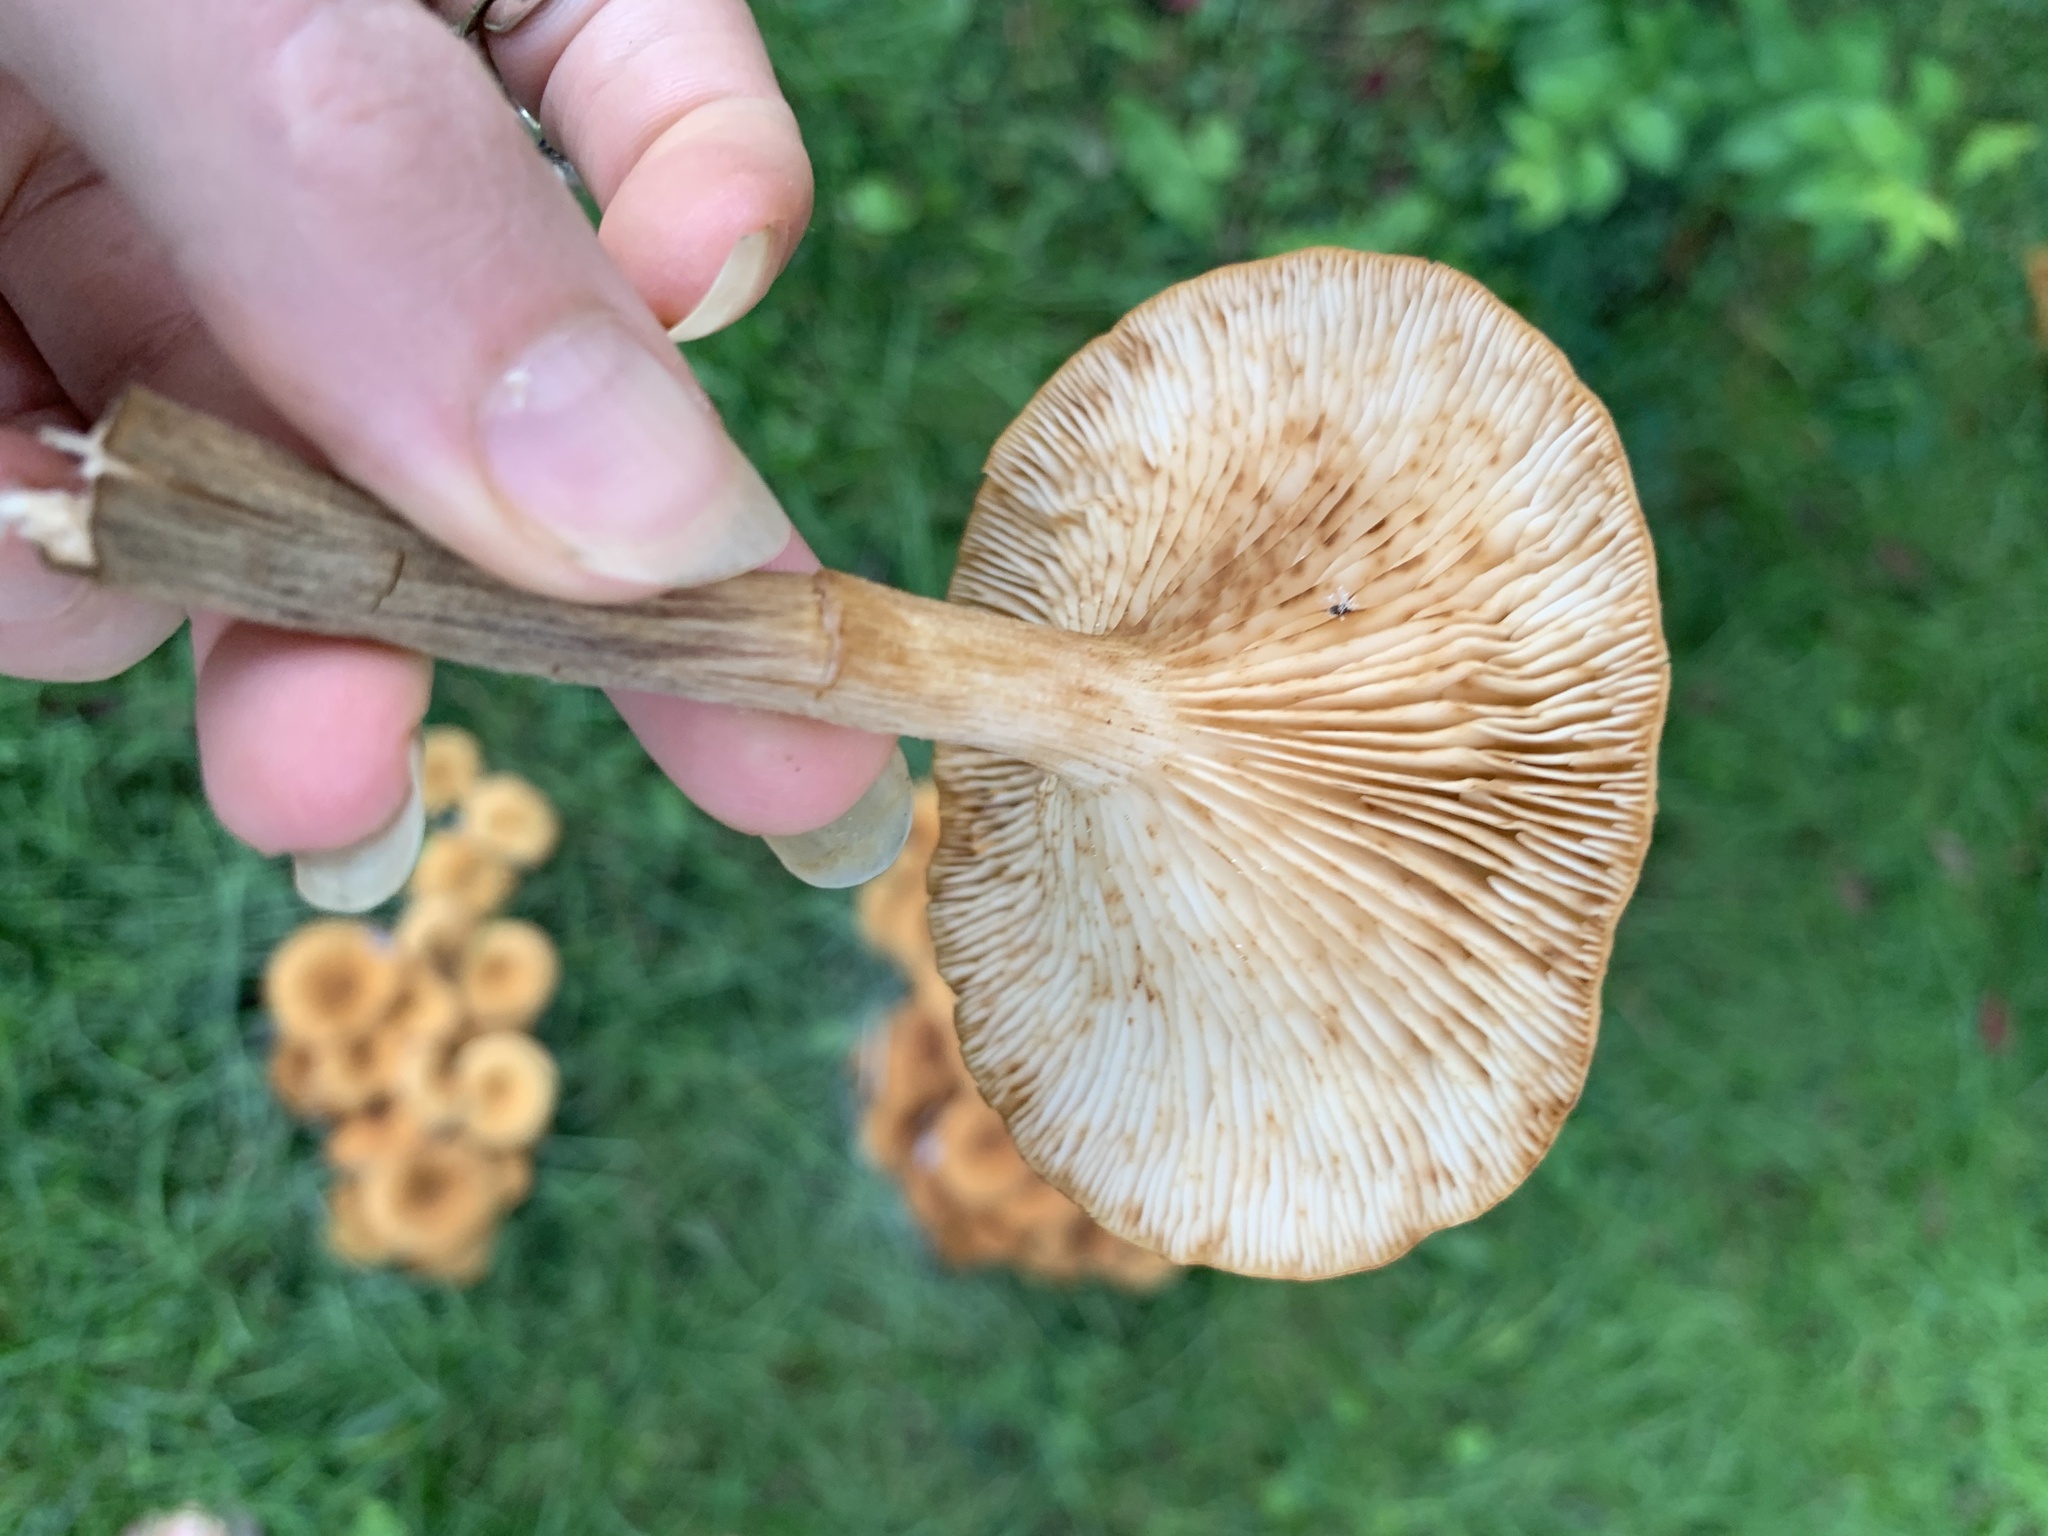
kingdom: Fungi
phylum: Basidiomycota
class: Agaricomycetes
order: Agaricales
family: Physalacriaceae
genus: Desarmillaria
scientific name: Desarmillaria caespitosa
